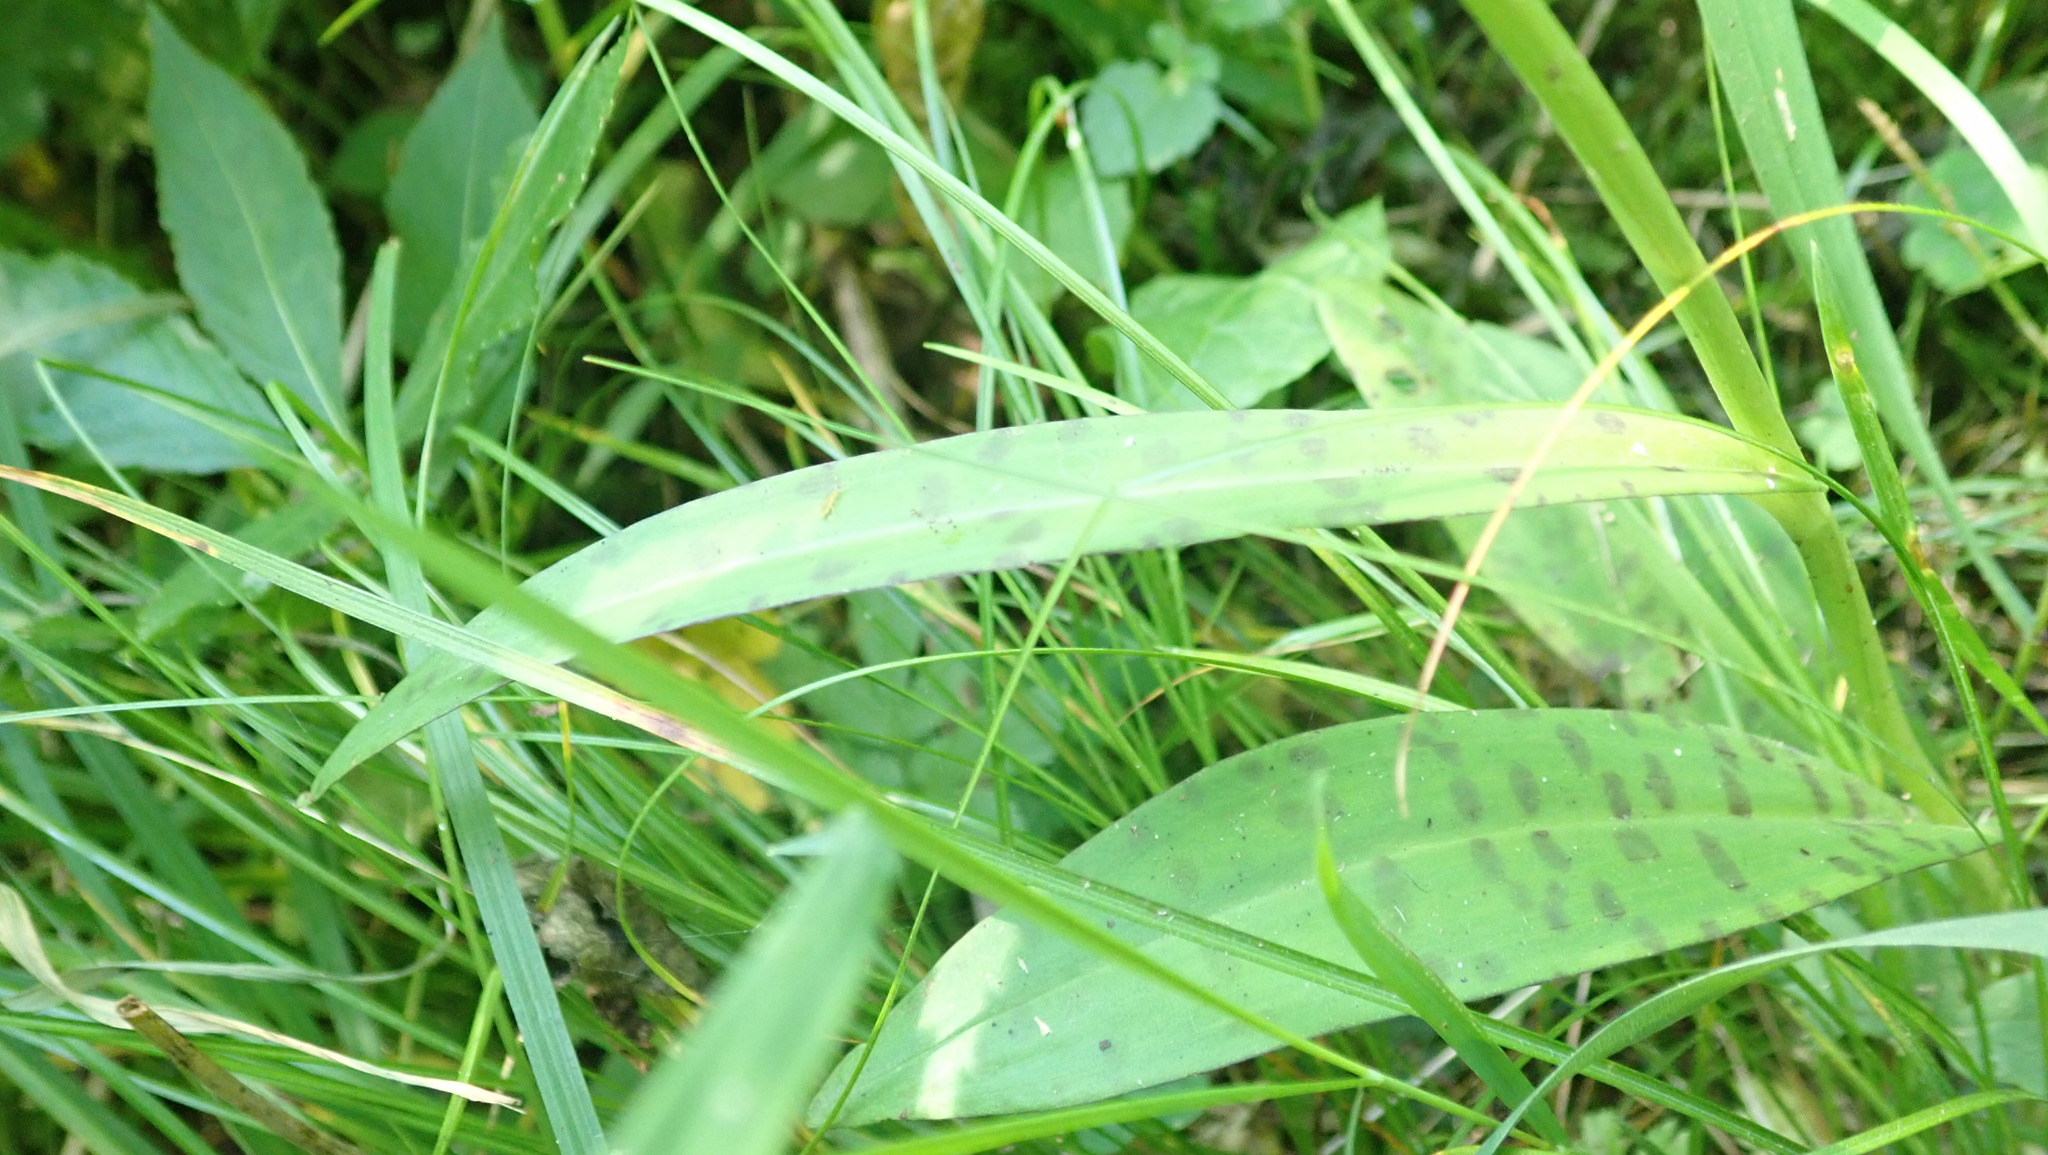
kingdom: Plantae
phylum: Tracheophyta
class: Liliopsida
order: Asparagales
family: Orchidaceae
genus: Gymnadenia
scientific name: Gymnadenia conopsea
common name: Fragrant orchid
